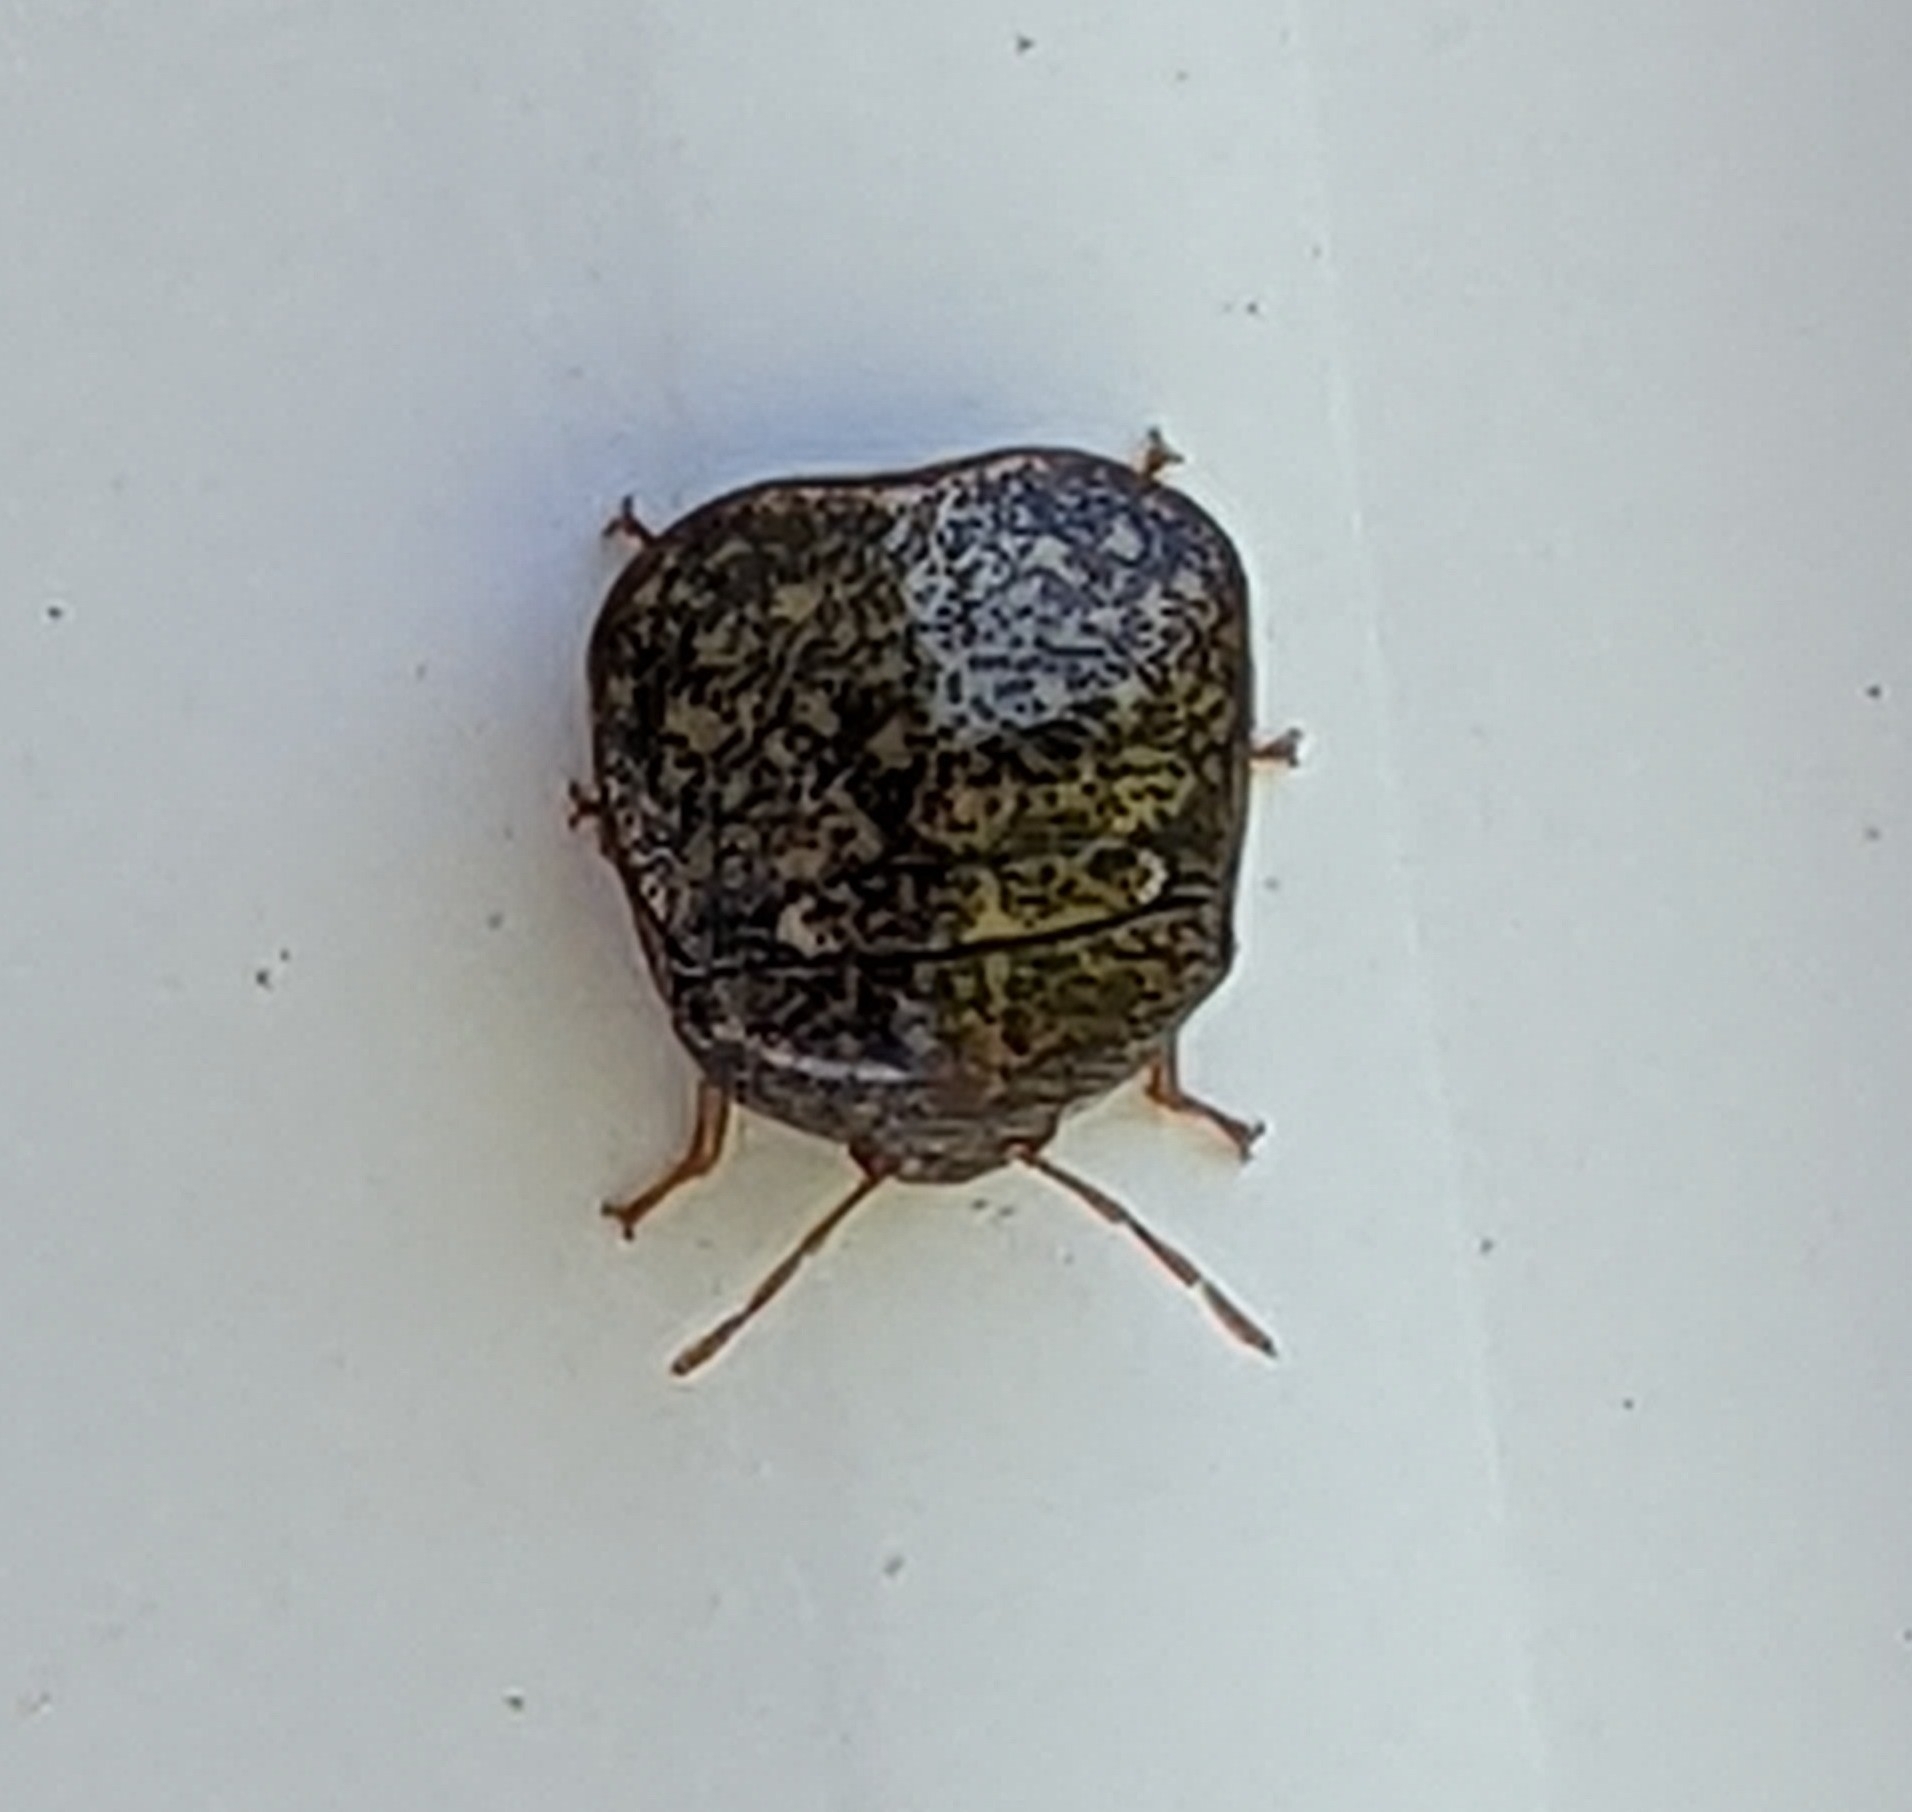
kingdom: Animalia
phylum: Arthropoda
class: Insecta
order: Hemiptera
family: Plataspidae
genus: Megacopta
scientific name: Megacopta cribraria
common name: Bean plataspid
